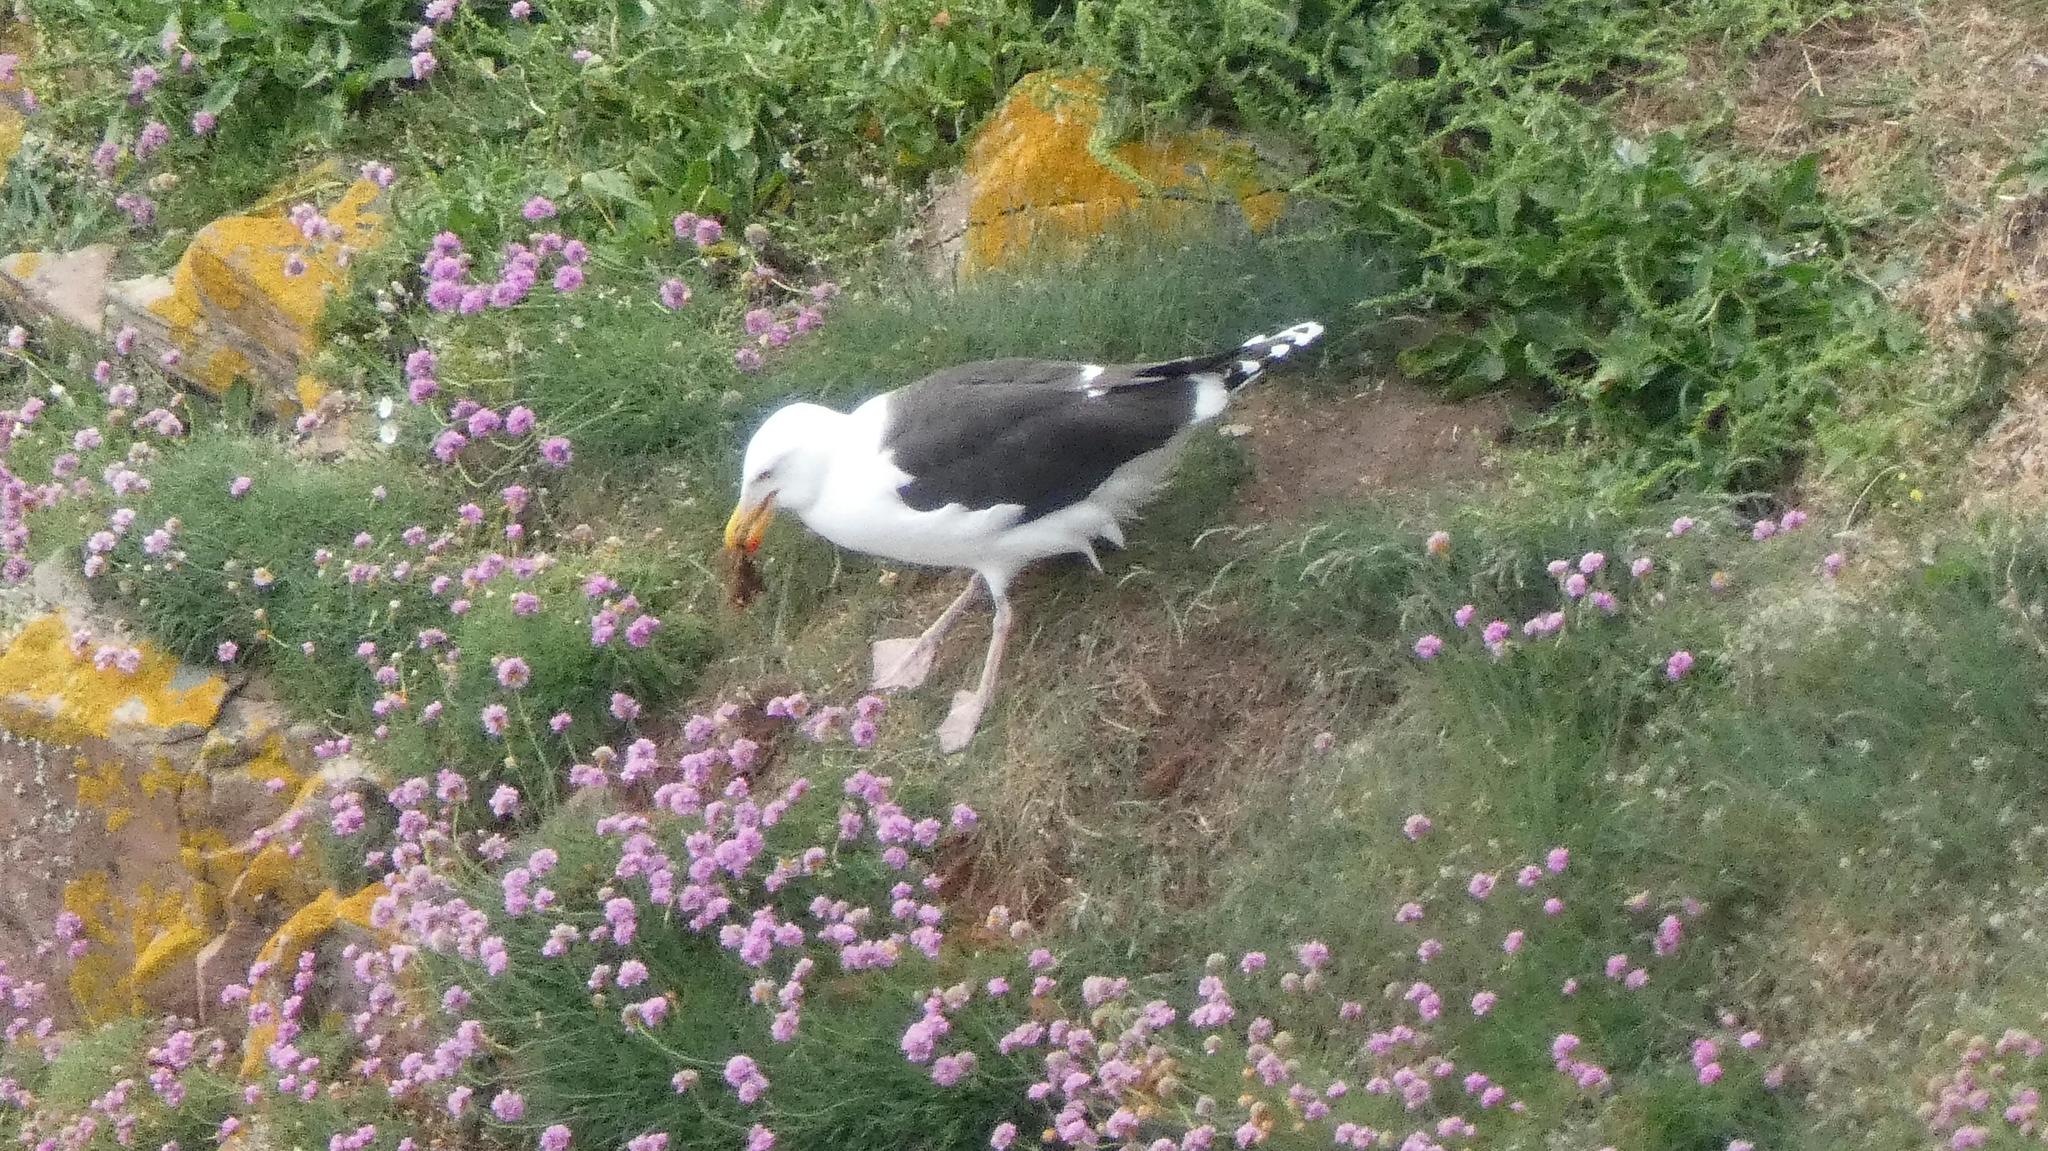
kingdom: Animalia
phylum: Chordata
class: Aves
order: Charadriiformes
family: Laridae
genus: Larus
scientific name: Larus marinus
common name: Great black-backed gull
